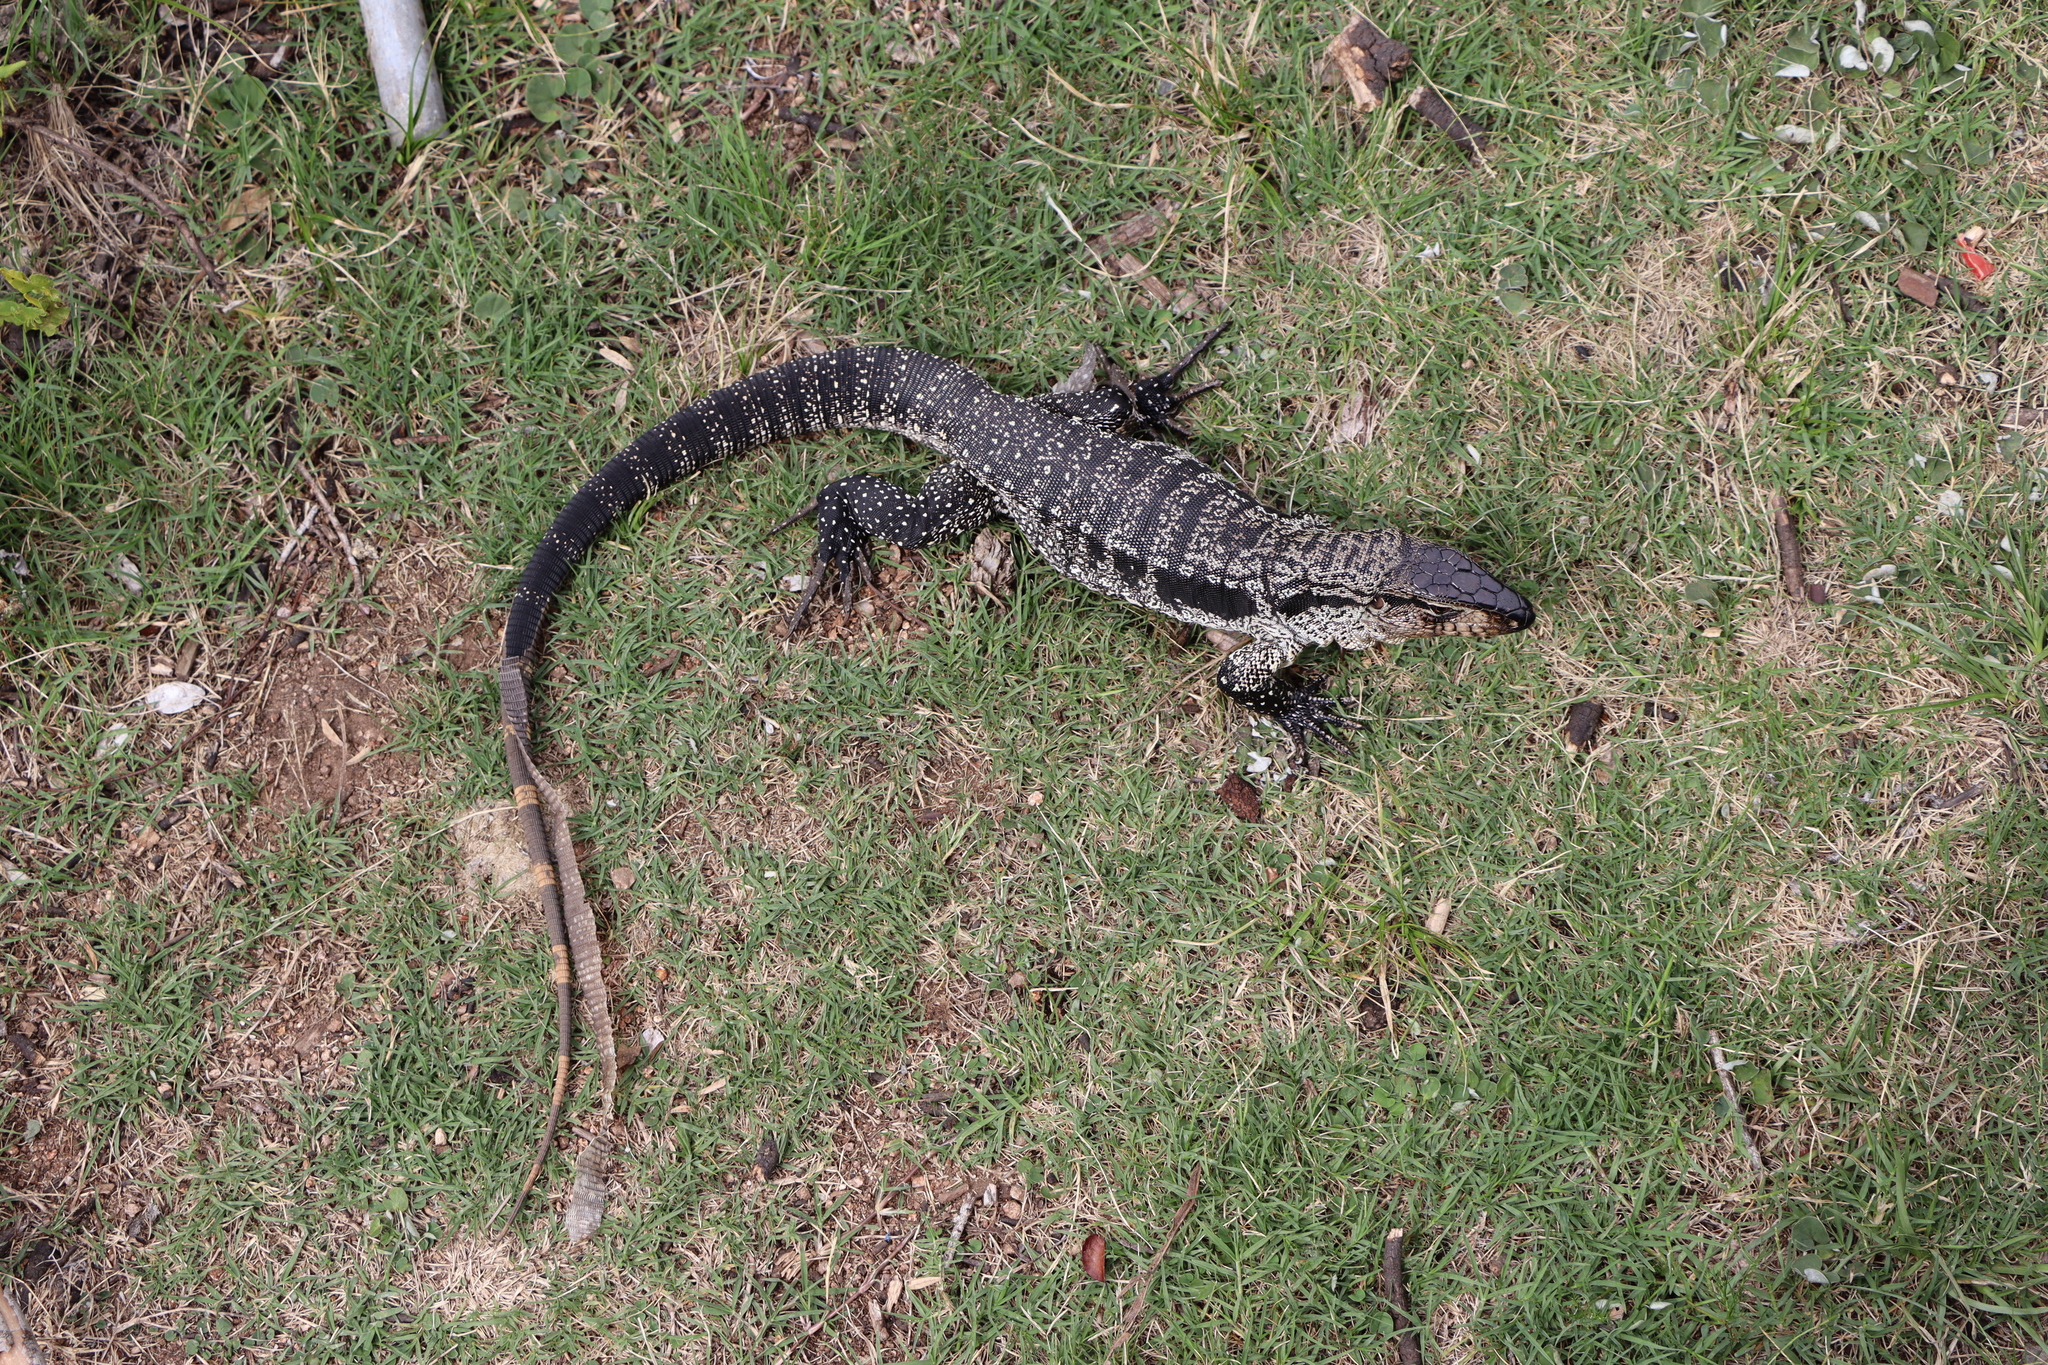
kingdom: Animalia
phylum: Chordata
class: Squamata
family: Teiidae
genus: Salvator
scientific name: Salvator merianae
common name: Argentine black and white tegu
